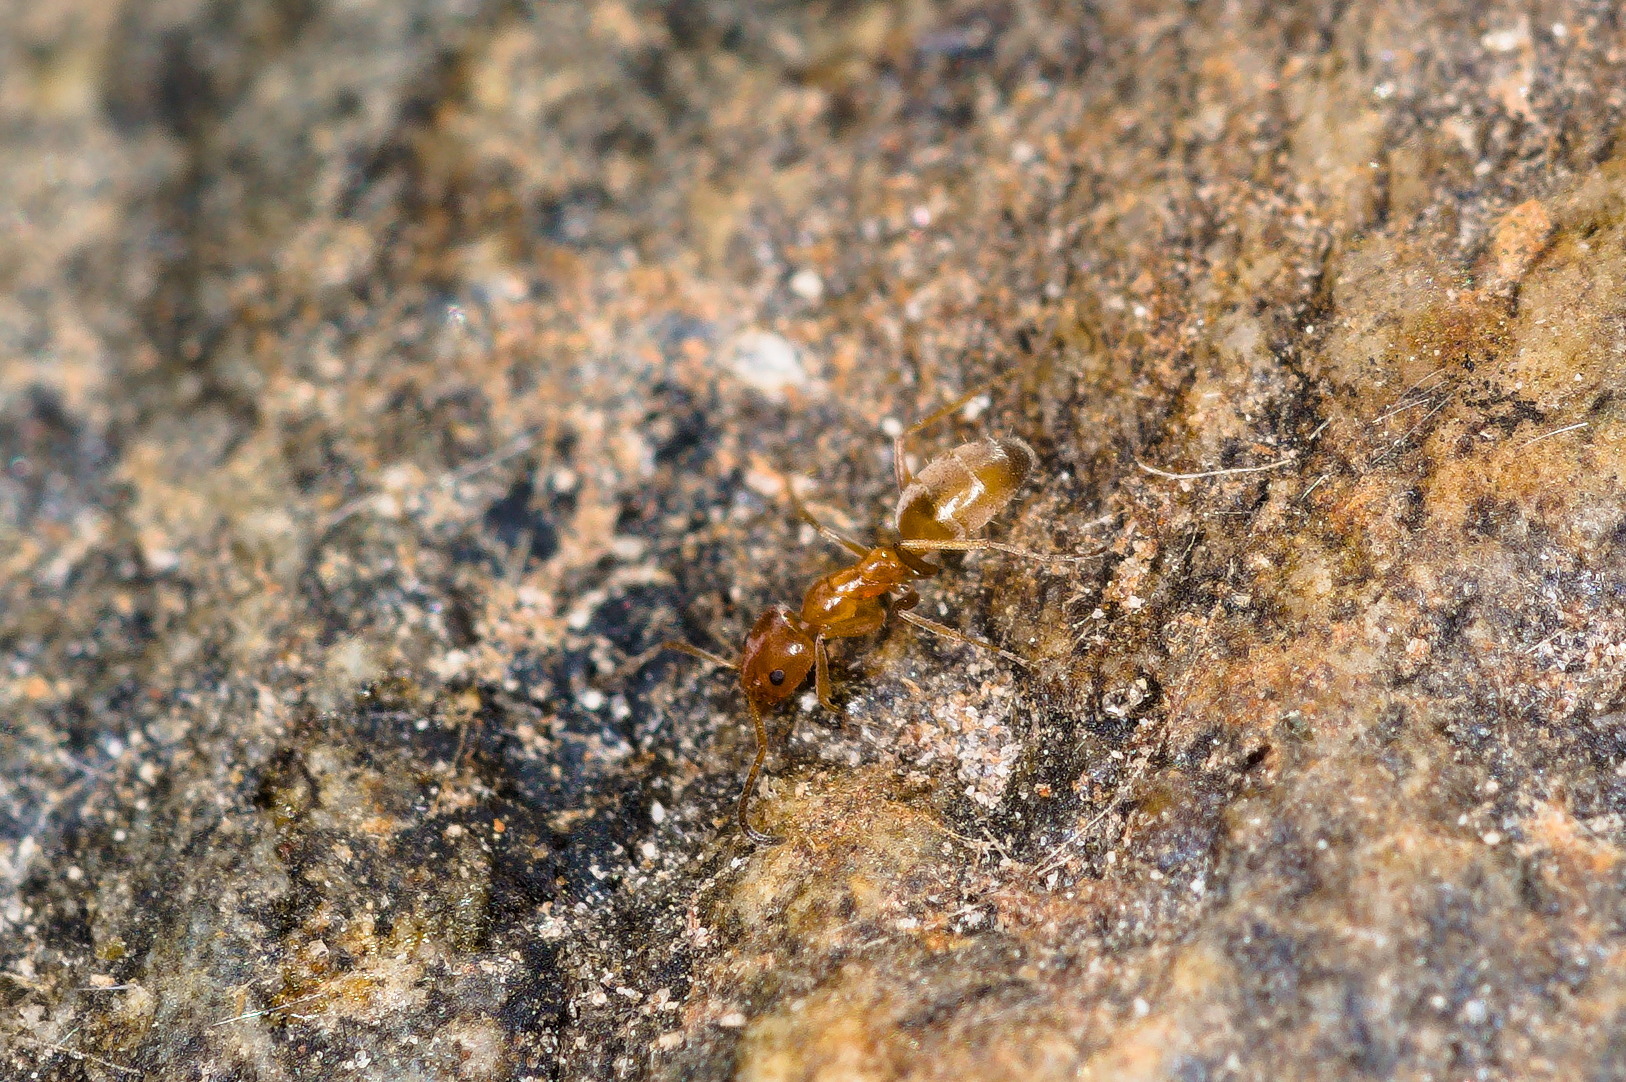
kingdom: Animalia
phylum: Arthropoda
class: Insecta
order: Hymenoptera
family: Formicidae
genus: Forelius
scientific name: Forelius mccooki
